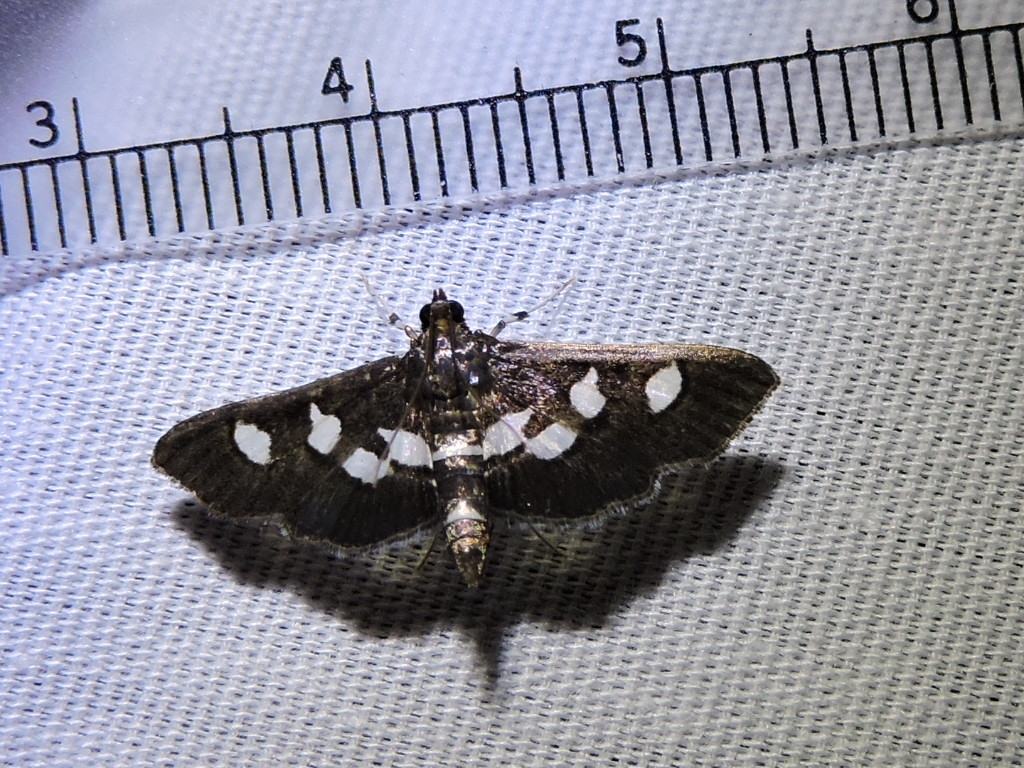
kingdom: Animalia
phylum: Arthropoda
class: Insecta
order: Lepidoptera
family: Crambidae
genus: Desmia
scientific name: Desmia funeralis
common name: Grape leaf folder moth
